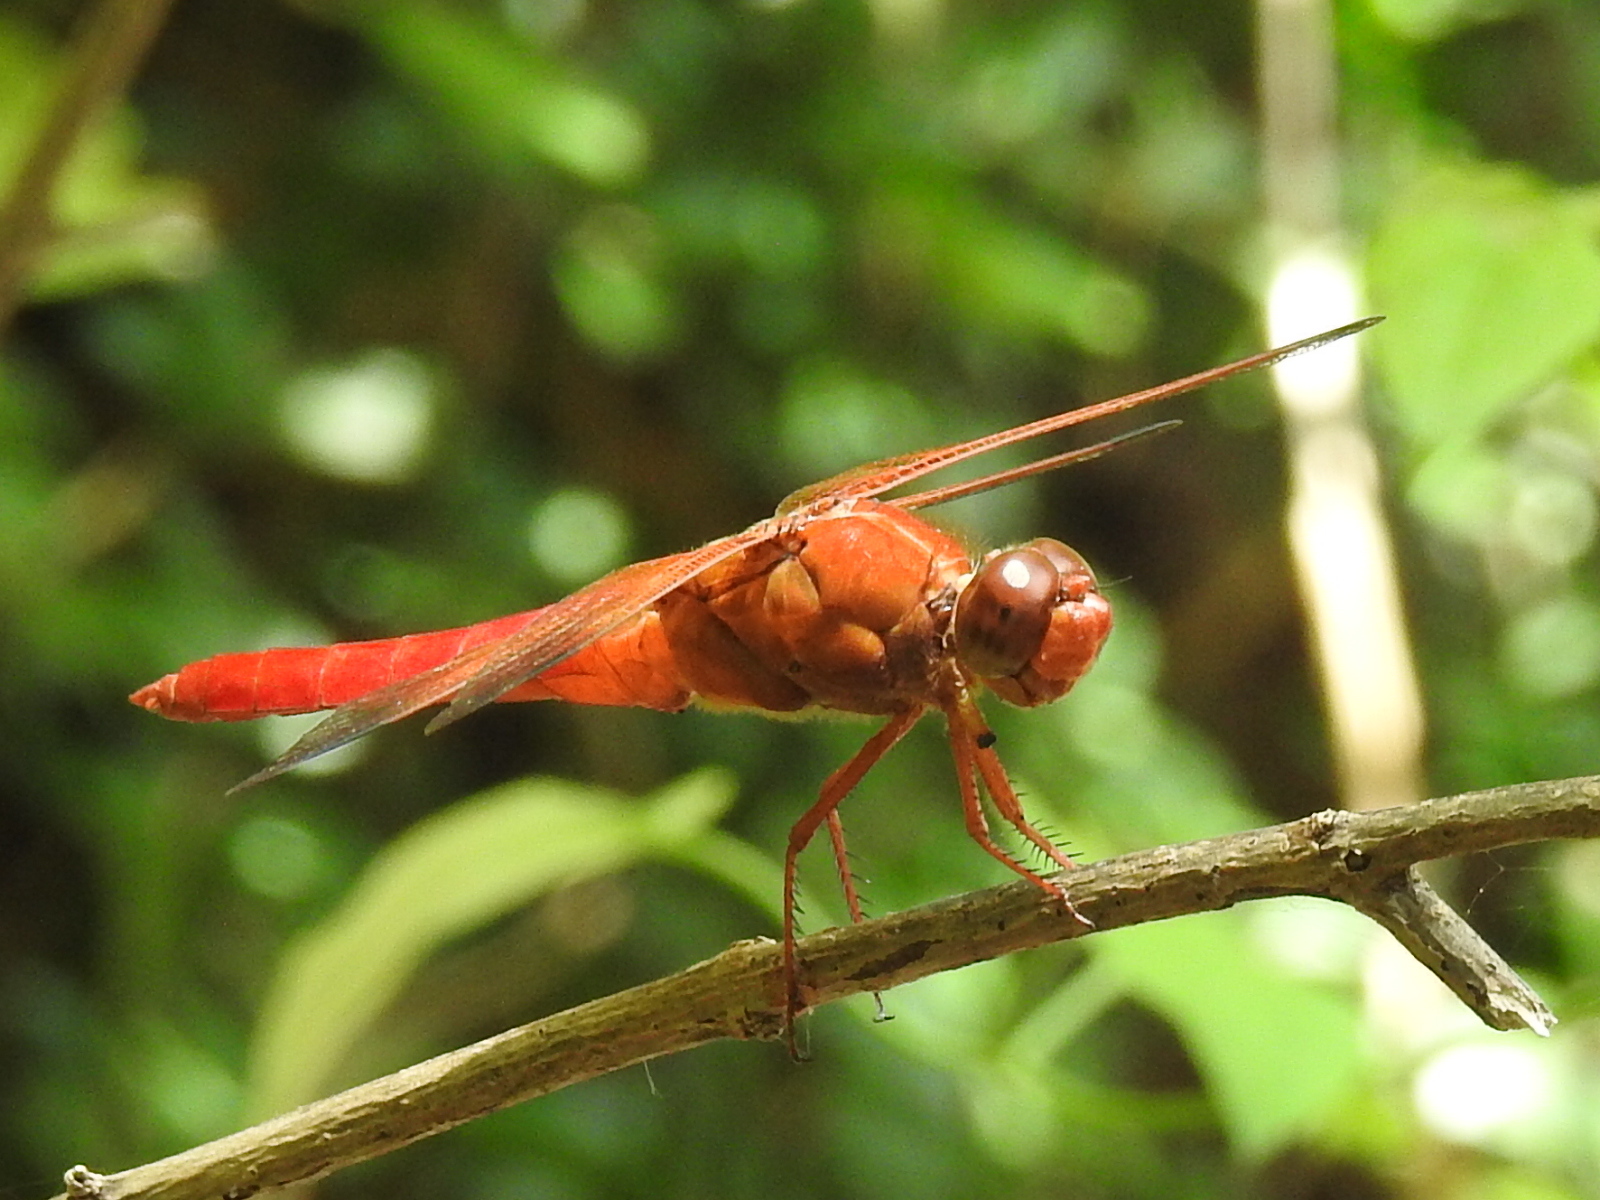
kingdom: Animalia
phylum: Arthropoda
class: Insecta
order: Odonata
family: Libellulidae
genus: Libellula
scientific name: Libellula croceipennis
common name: Neon skimmer
